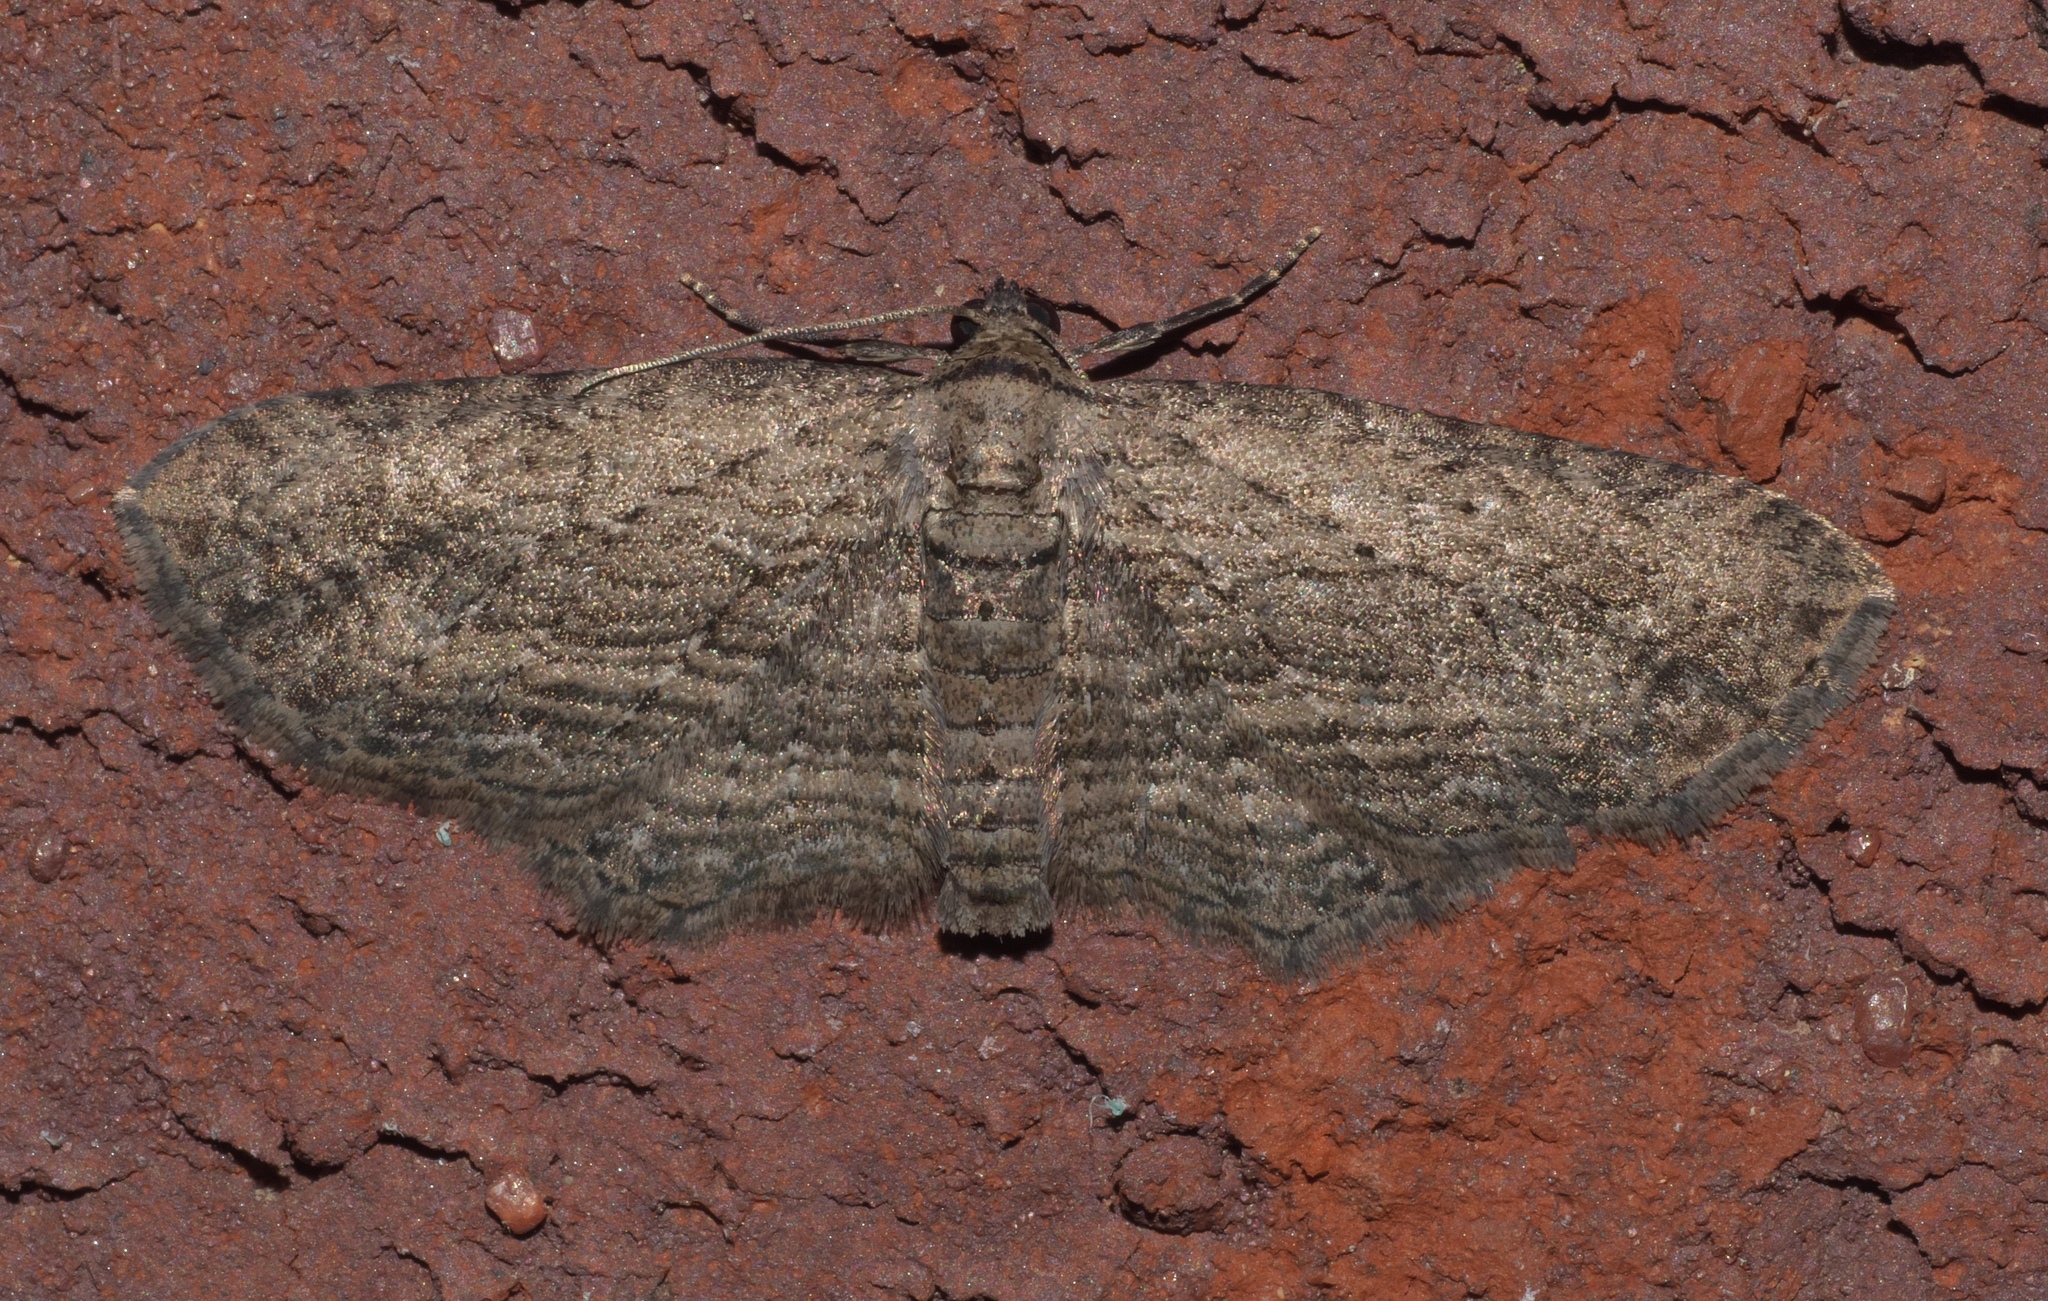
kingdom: Animalia
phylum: Arthropoda
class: Insecta
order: Lepidoptera
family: Geometridae
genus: Horisme
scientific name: Horisme intestinata
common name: Brown bark carpet
